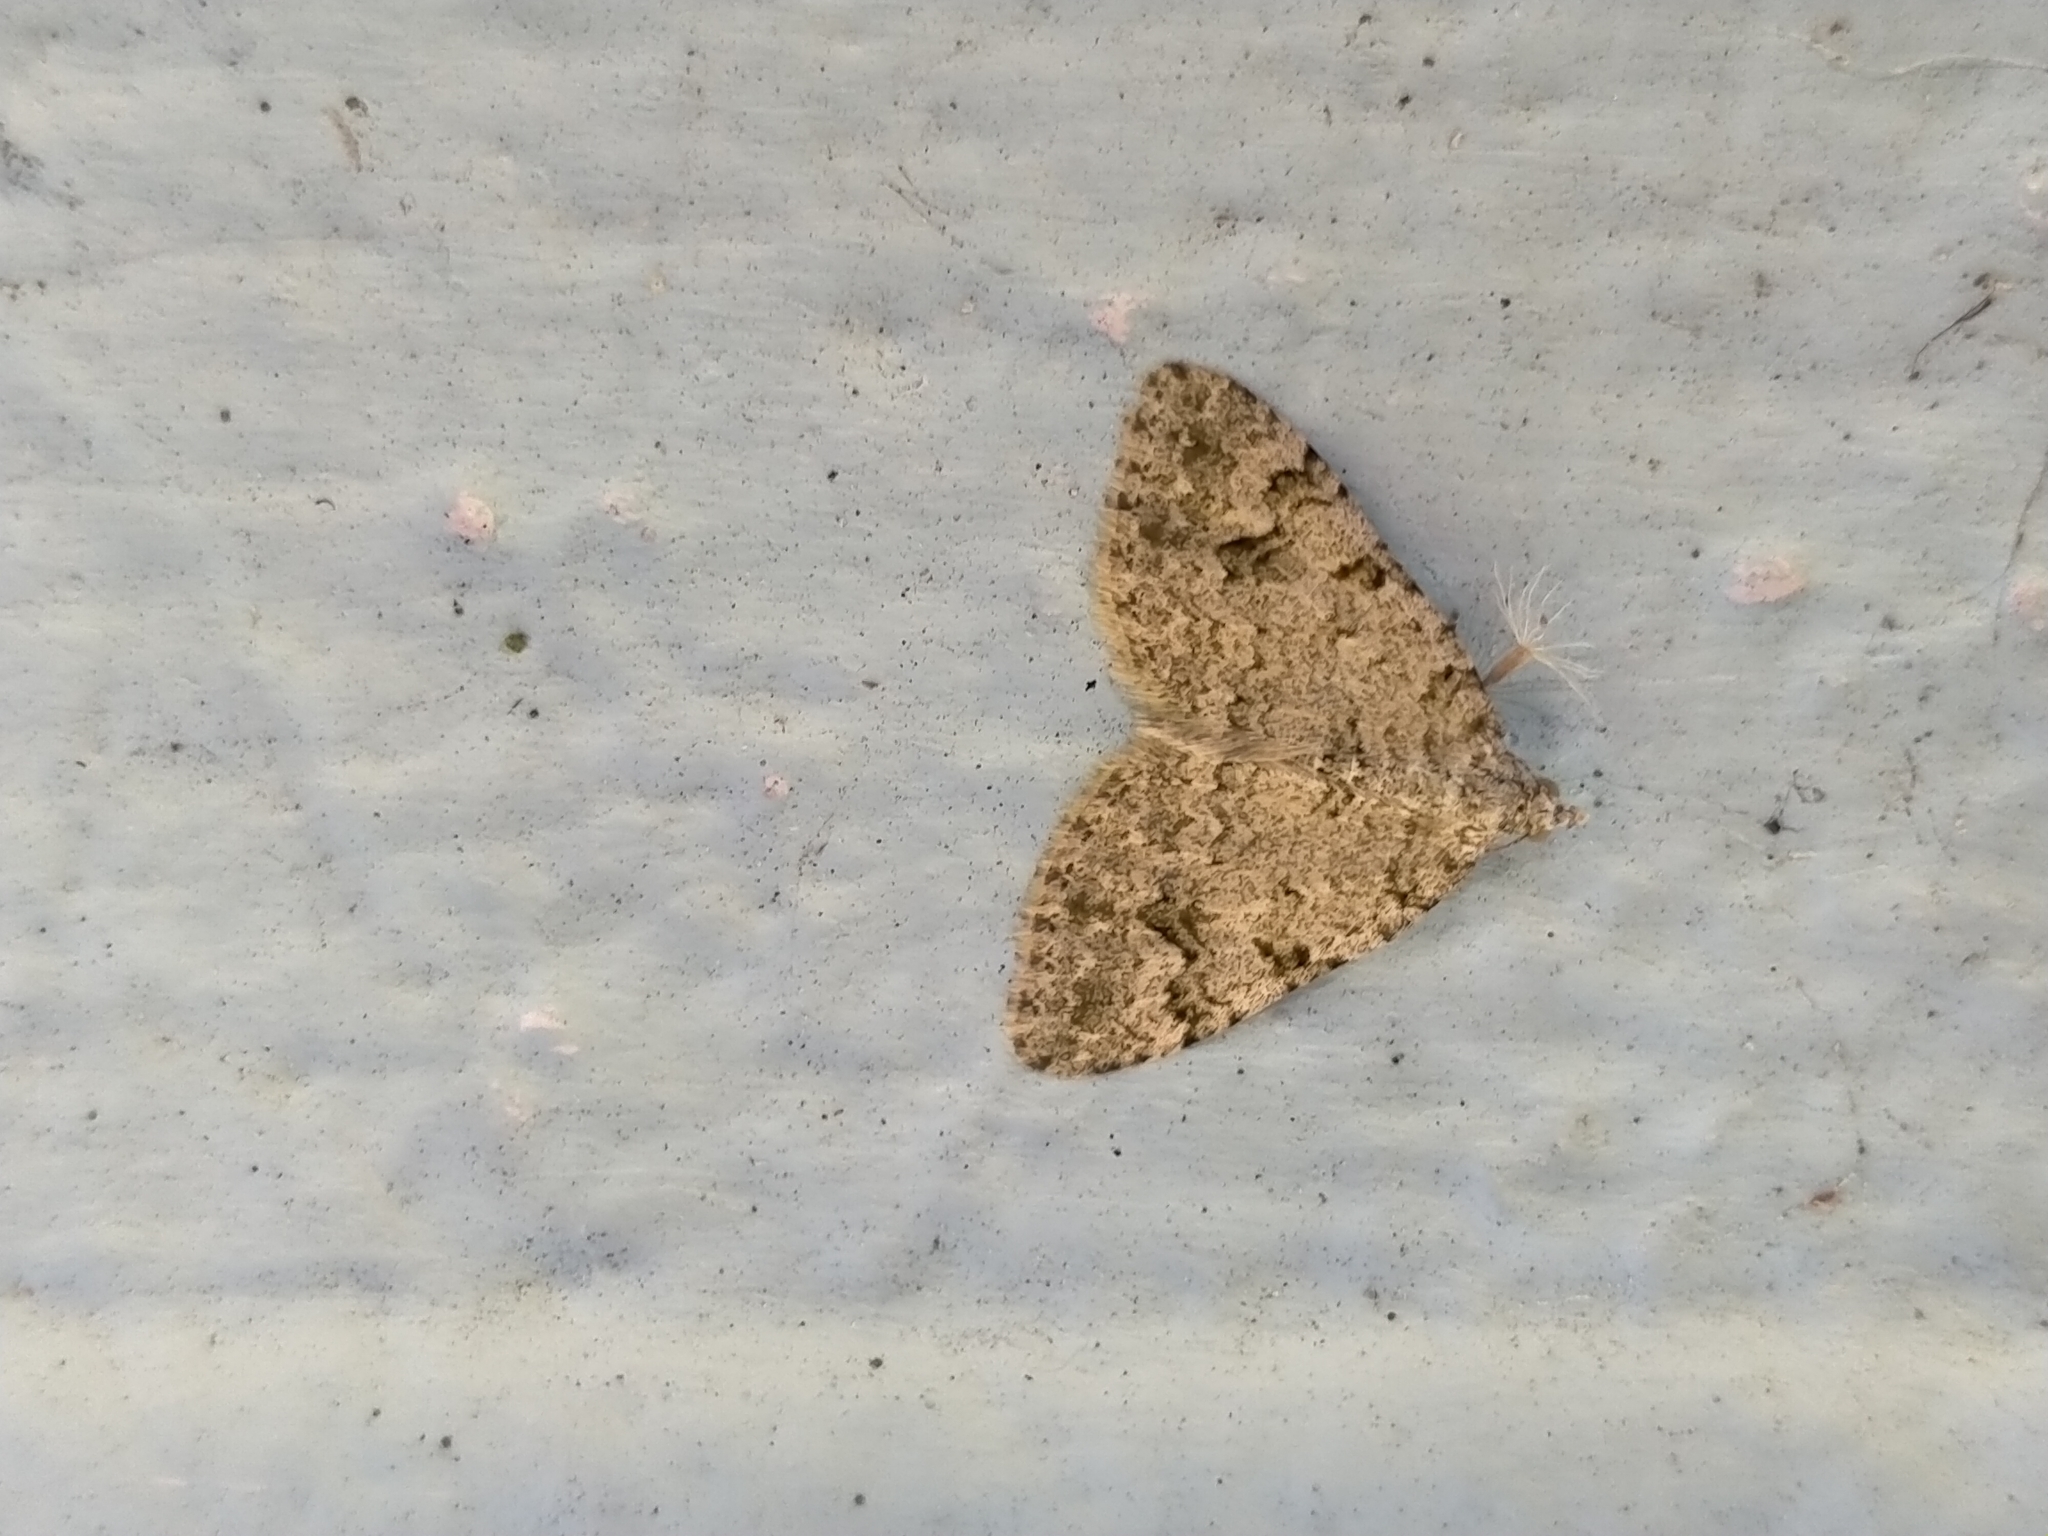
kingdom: Animalia
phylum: Arthropoda
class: Insecta
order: Lepidoptera
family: Geometridae
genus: Helastia
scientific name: Helastia cinerearia
